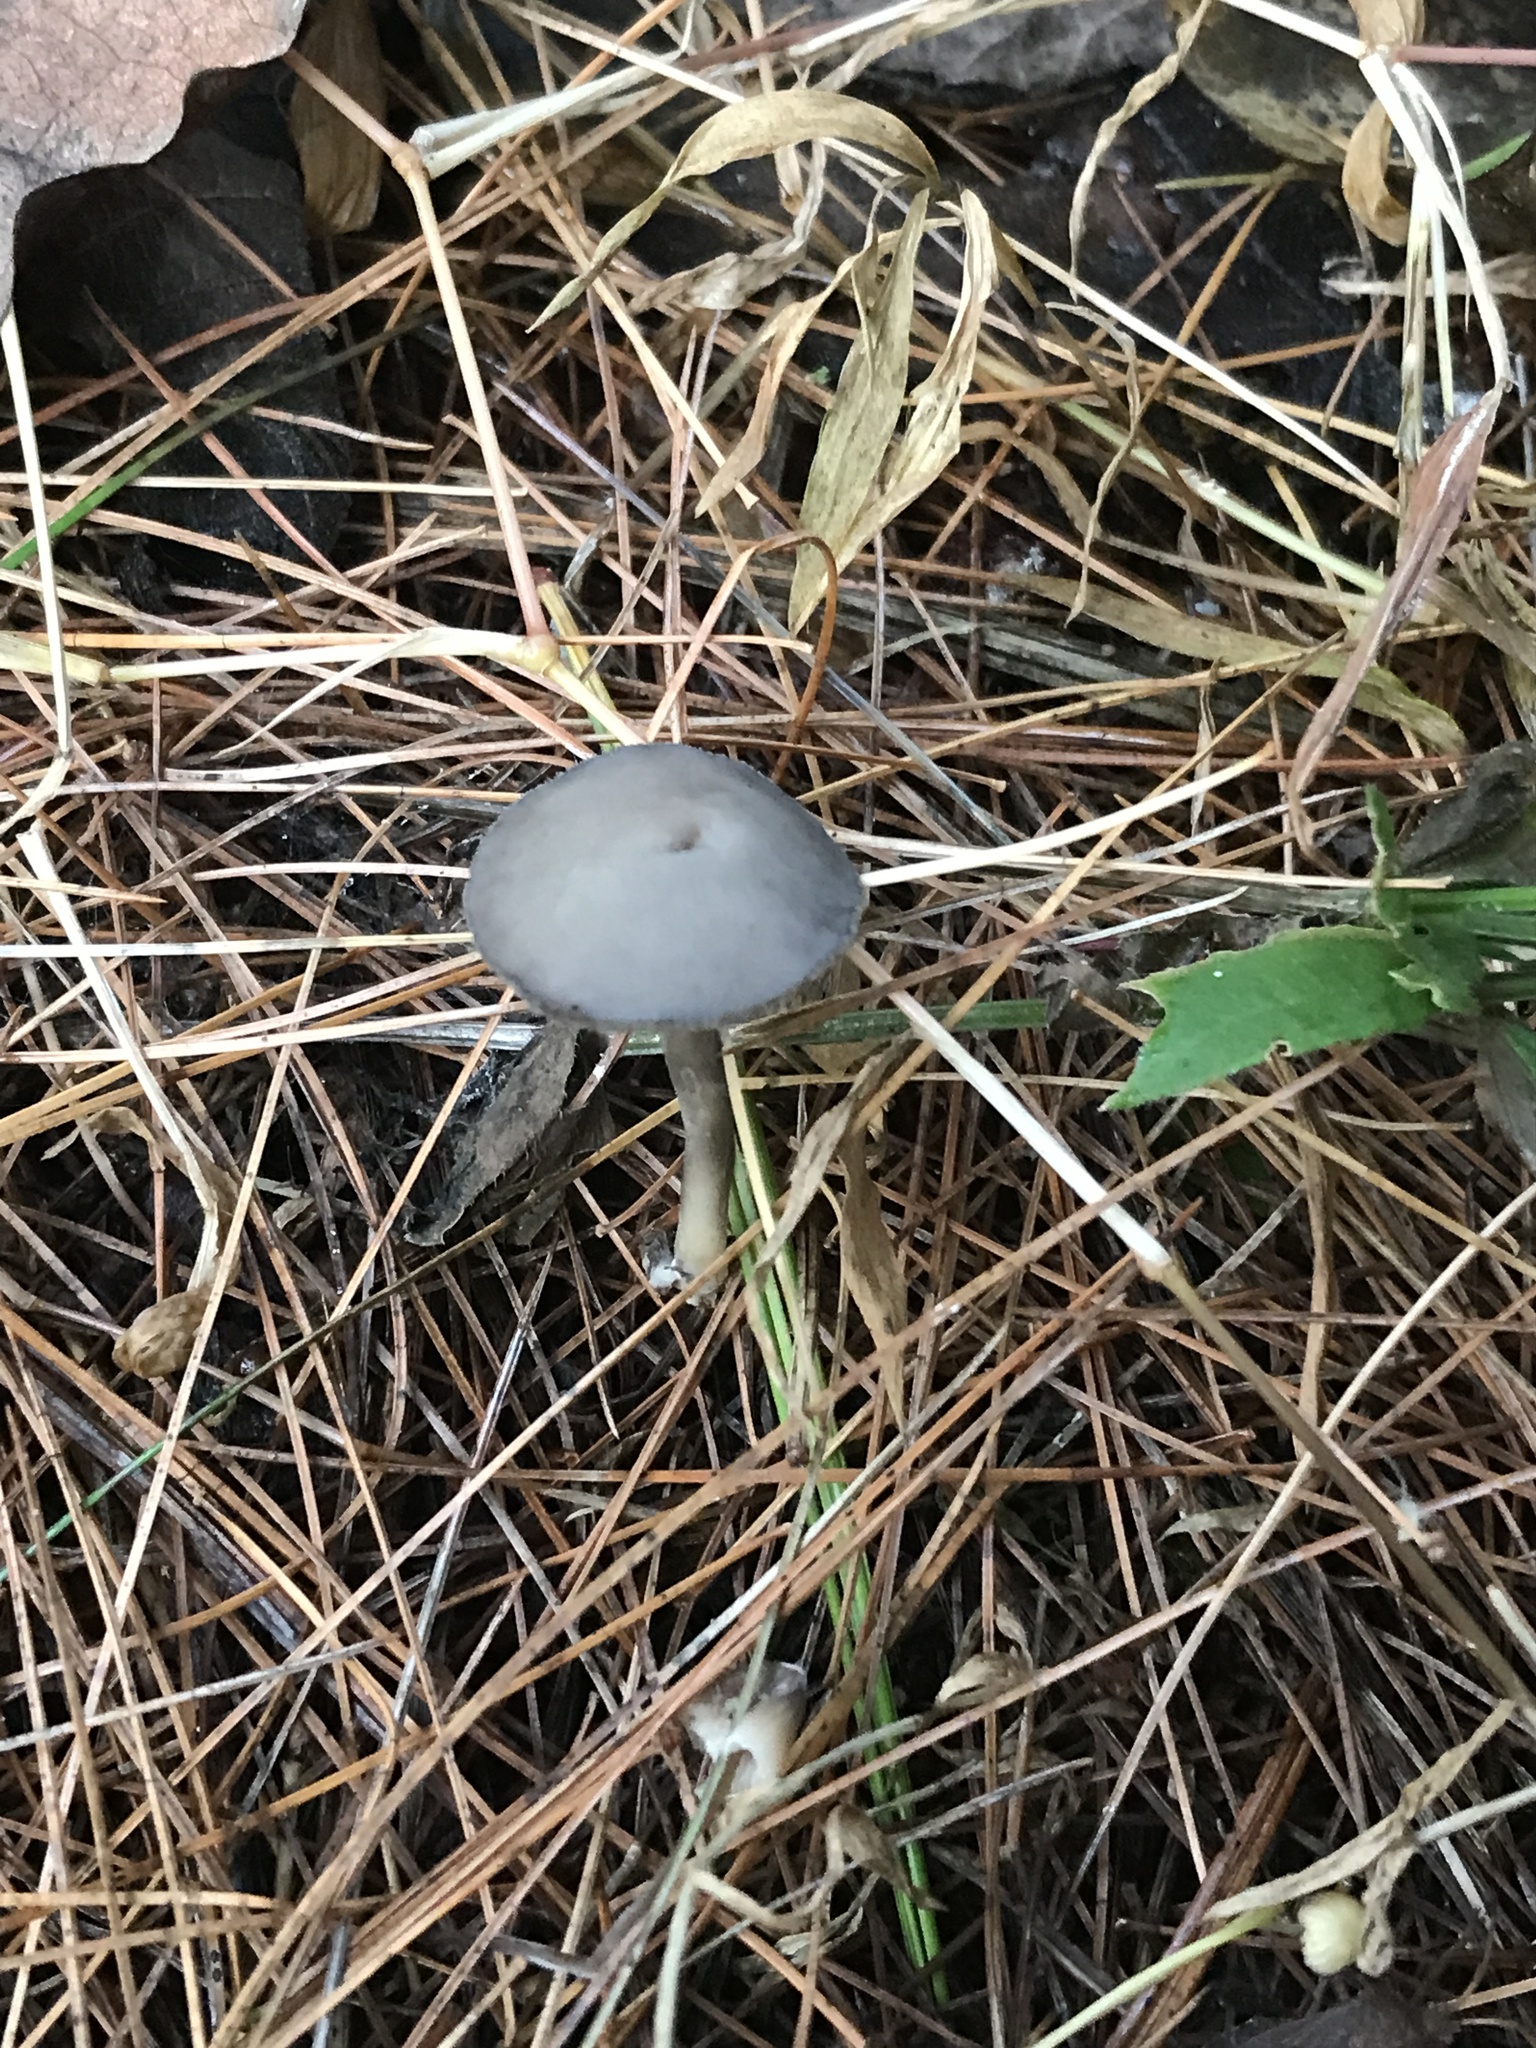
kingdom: Fungi
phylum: Ascomycota
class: Pezizomycetes
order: Pezizales
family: Helvellaceae
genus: Helvella
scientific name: Helvella macropus
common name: Felt saddle
